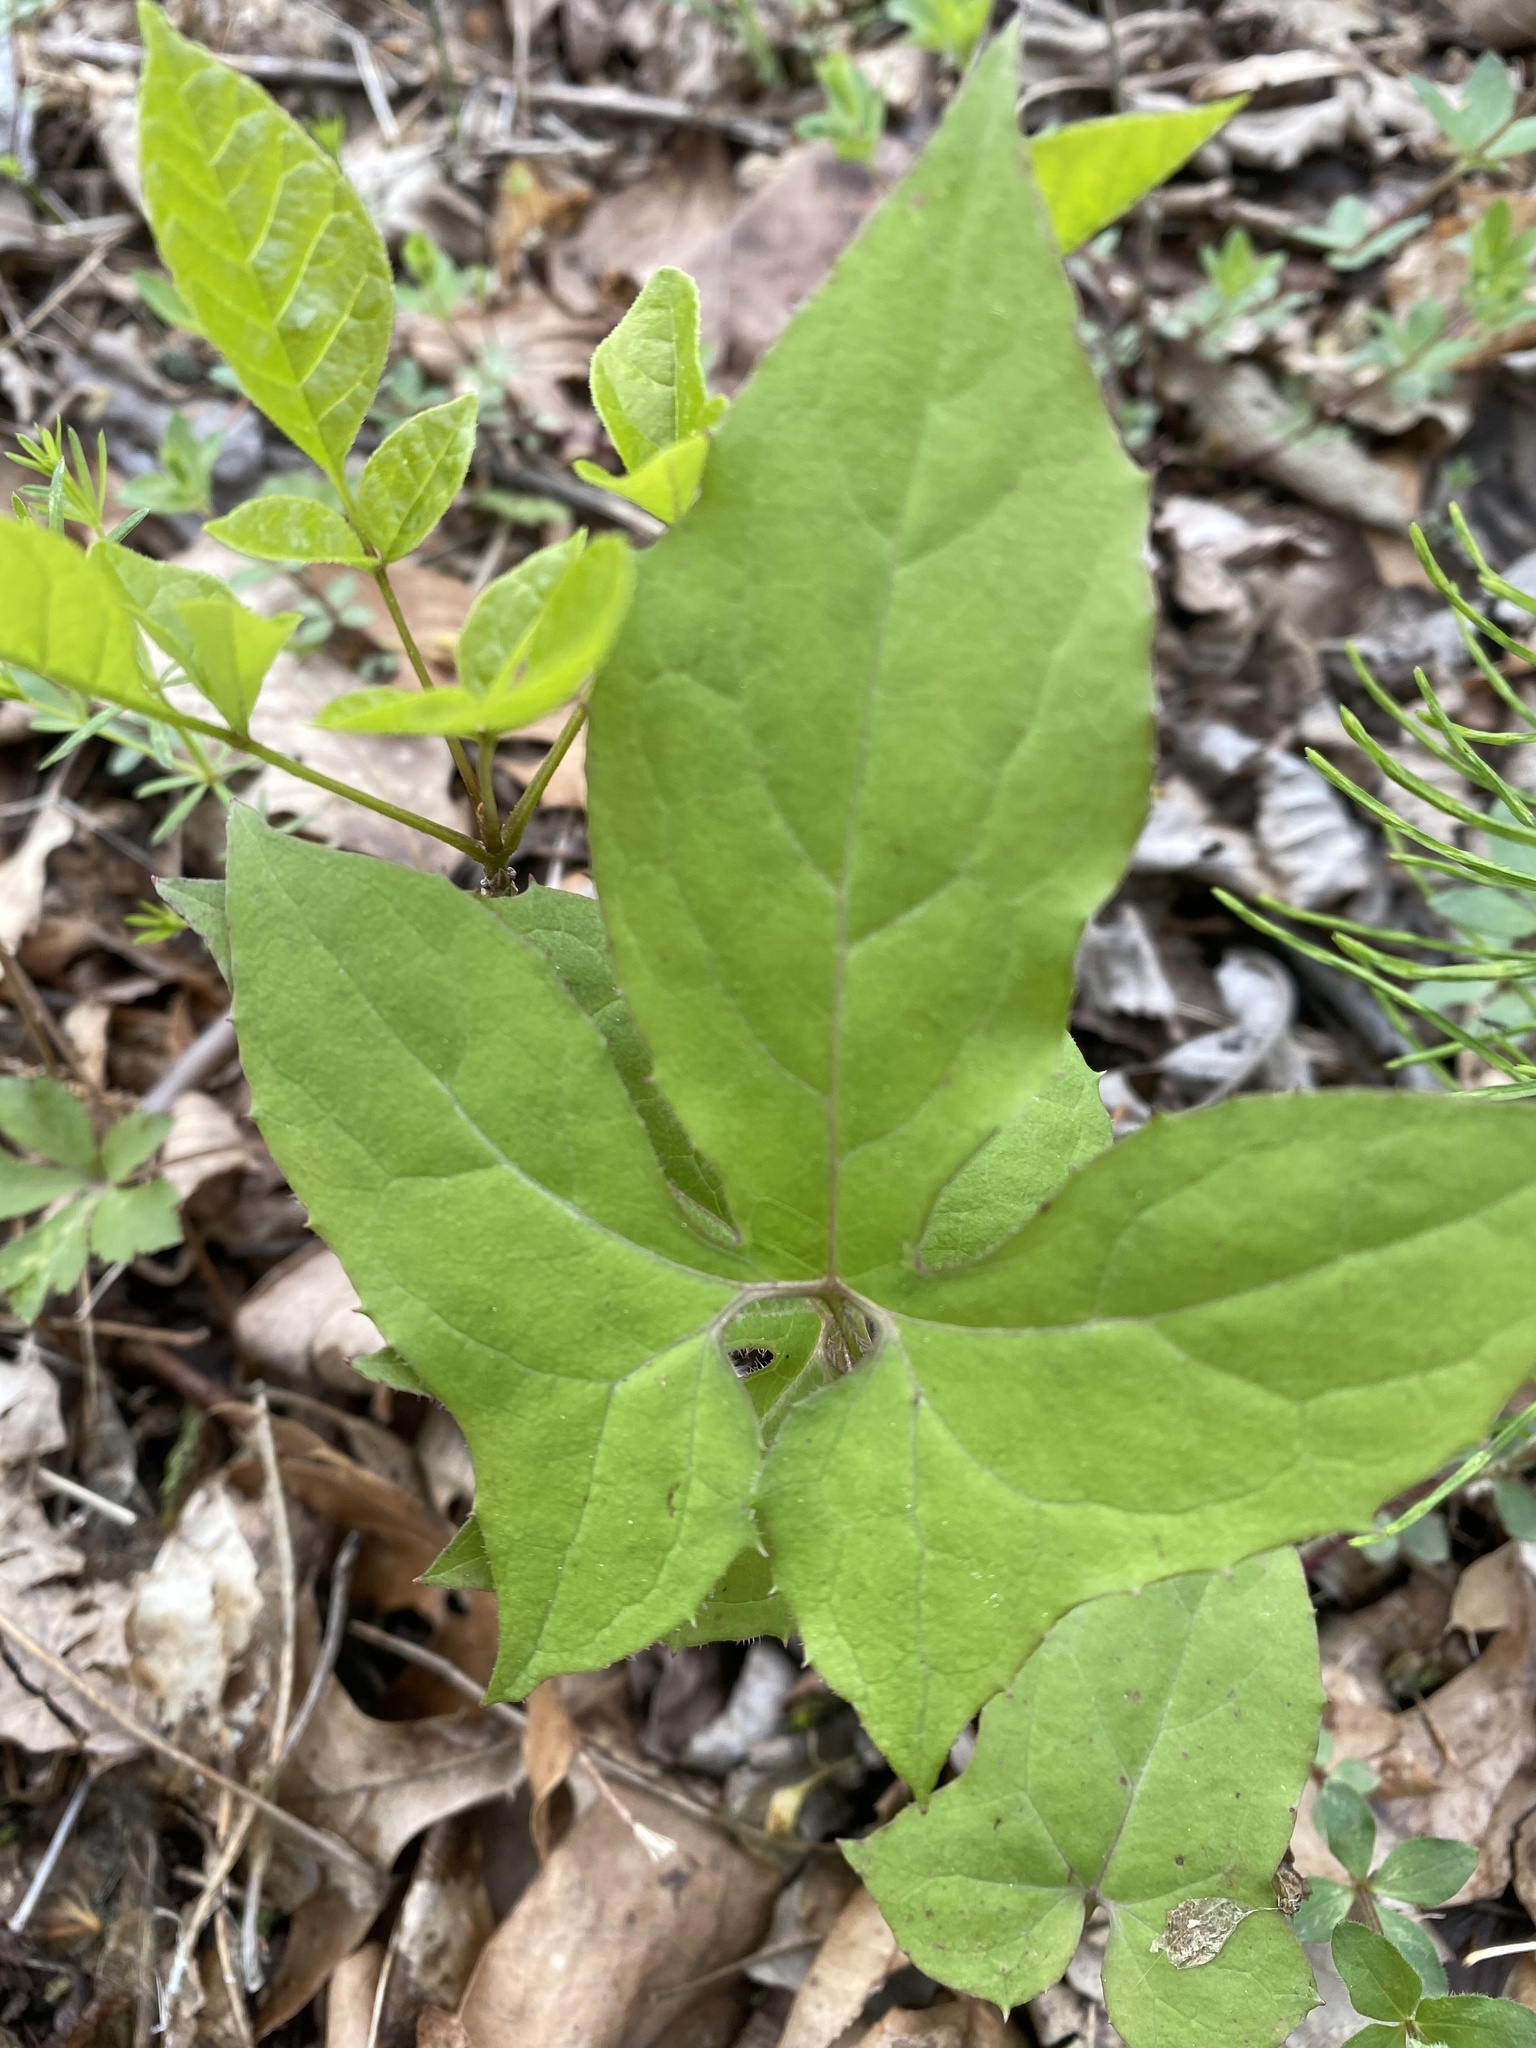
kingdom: Plantae
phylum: Tracheophyta
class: Magnoliopsida
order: Asterales
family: Asteraceae
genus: Nabalus
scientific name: Nabalus altissima
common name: Tall rattlesnakeroot
